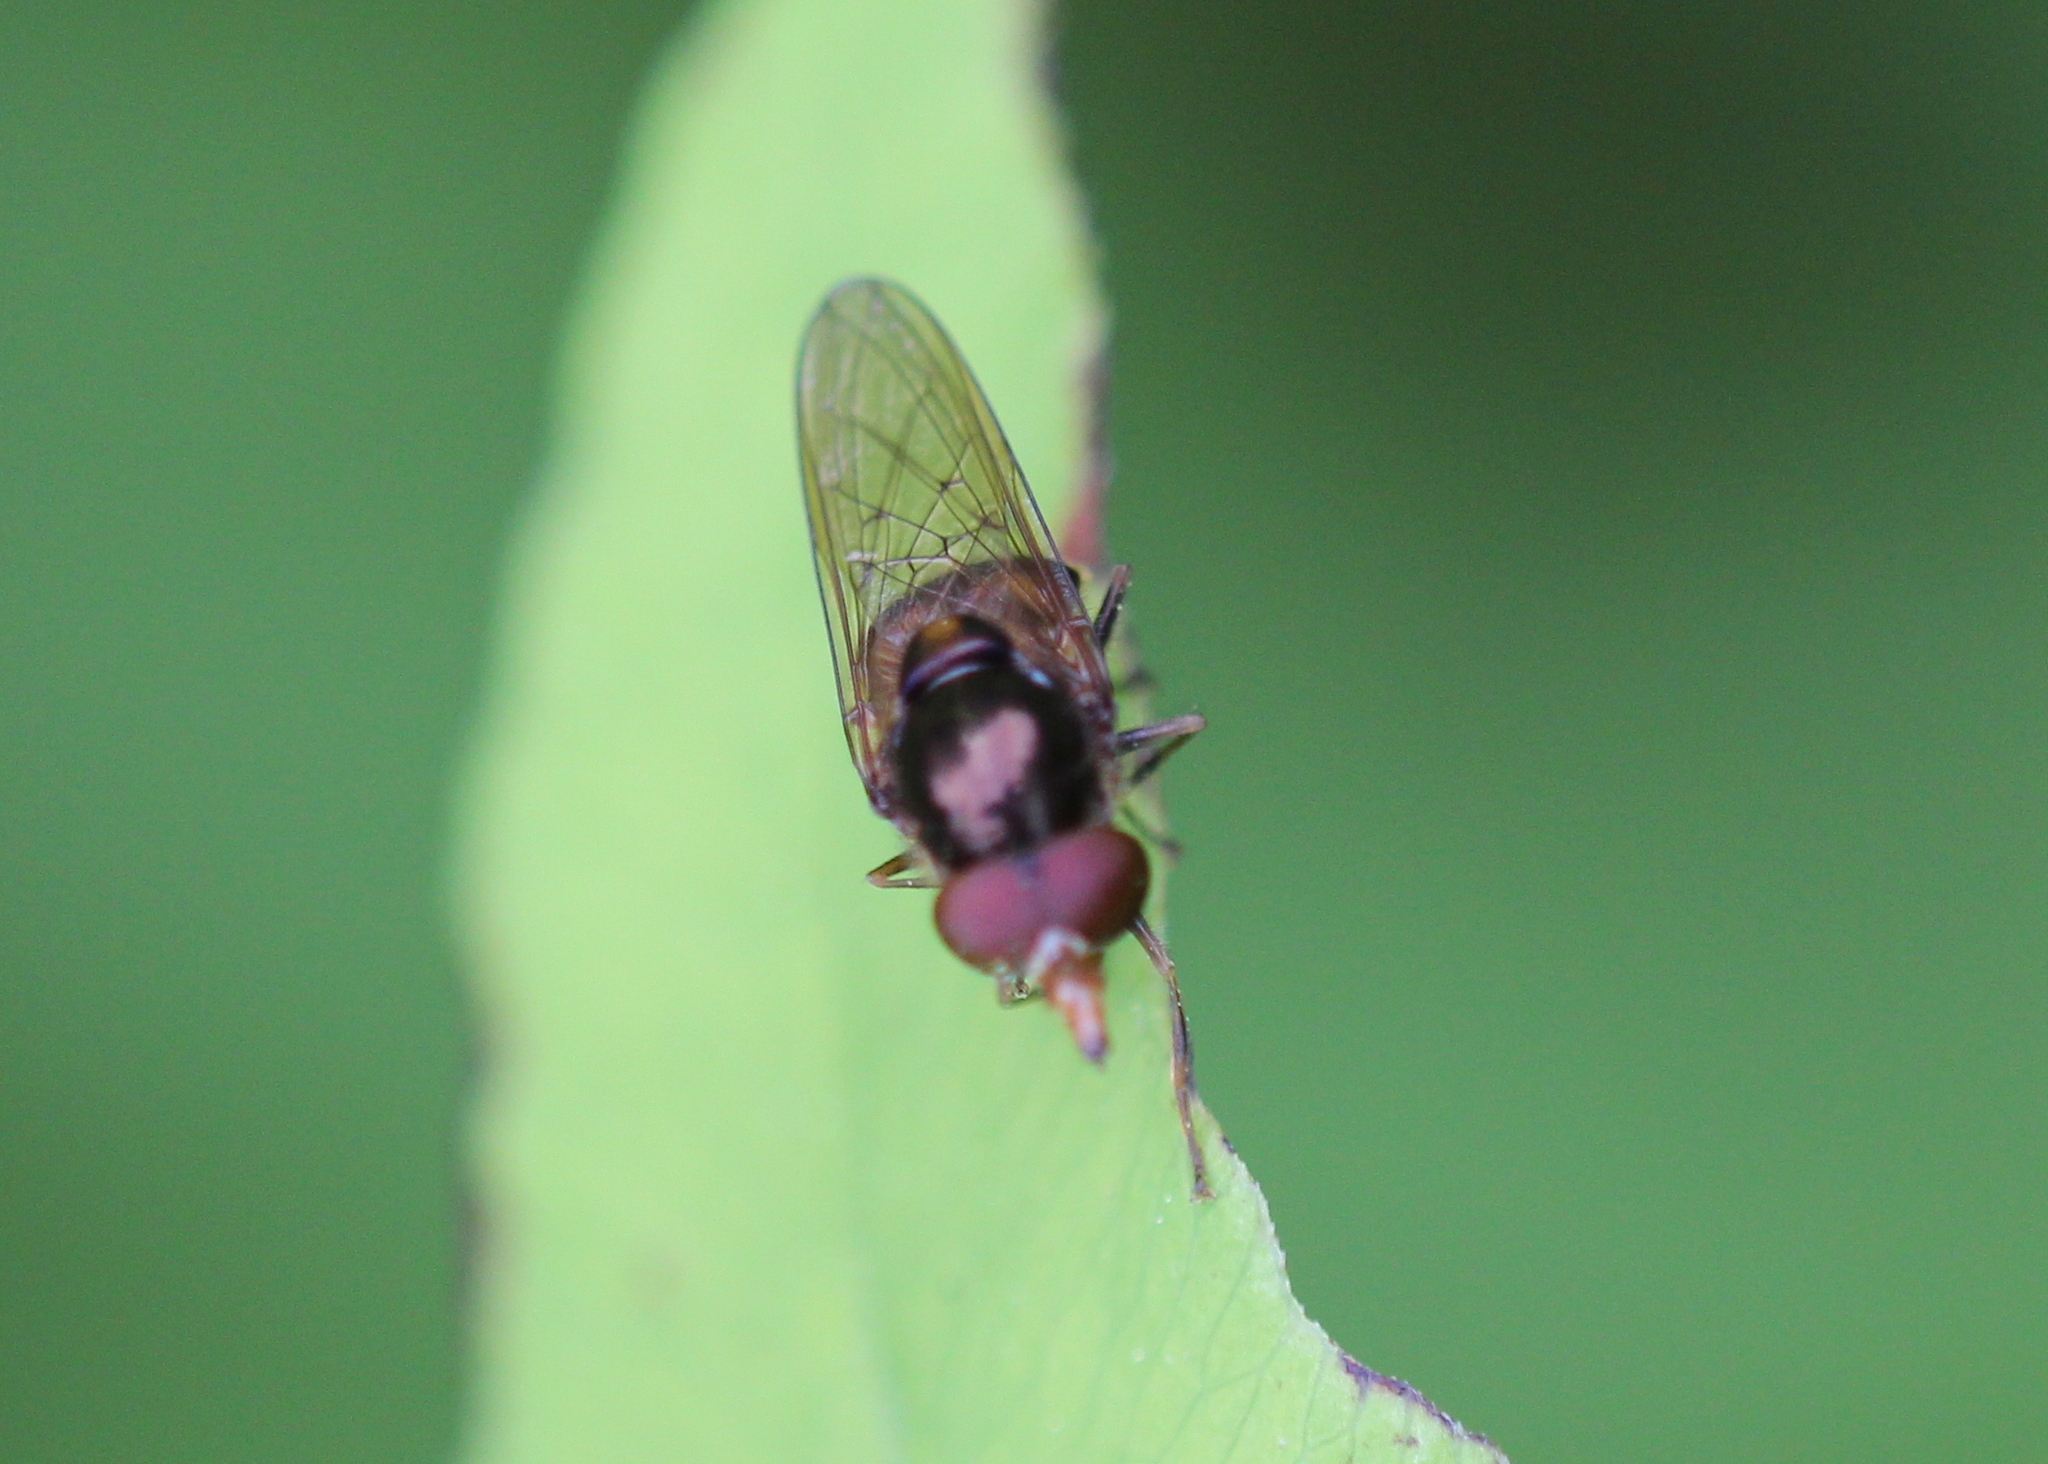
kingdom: Animalia
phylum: Arthropoda
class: Insecta
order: Diptera
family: Syrphidae
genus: Rhingia
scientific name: Rhingia nasica
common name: American snout fly
